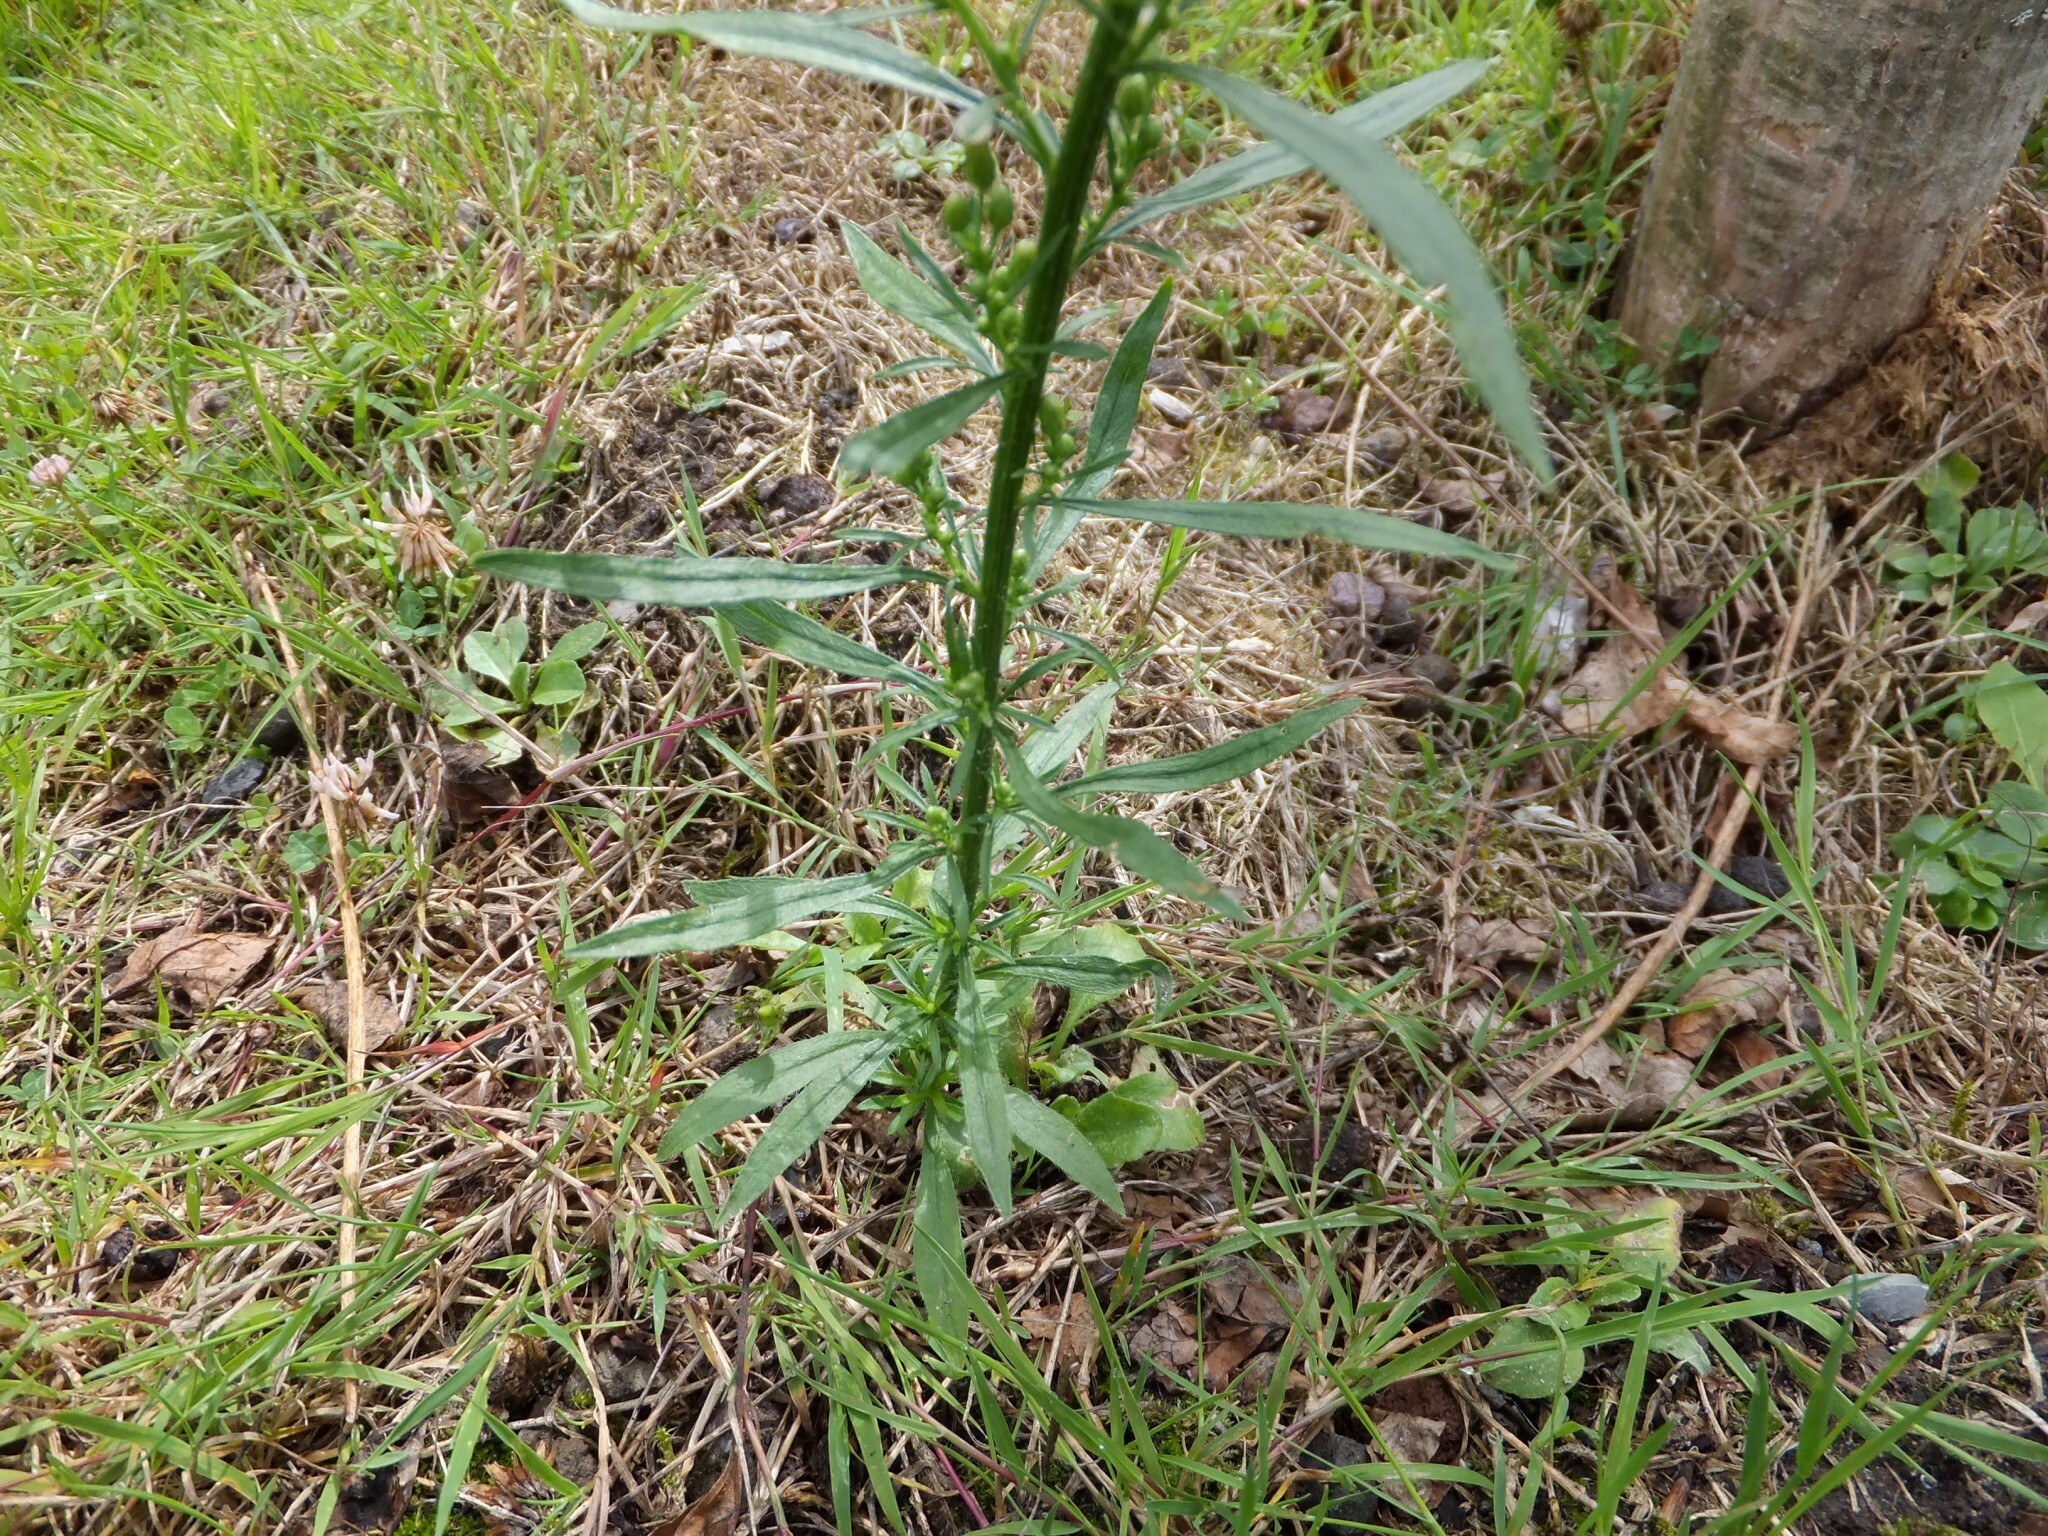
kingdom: Plantae
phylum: Tracheophyta
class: Magnoliopsida
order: Asterales
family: Asteraceae
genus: Erigeron
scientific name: Erigeron canadensis
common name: Canadian fleabane
